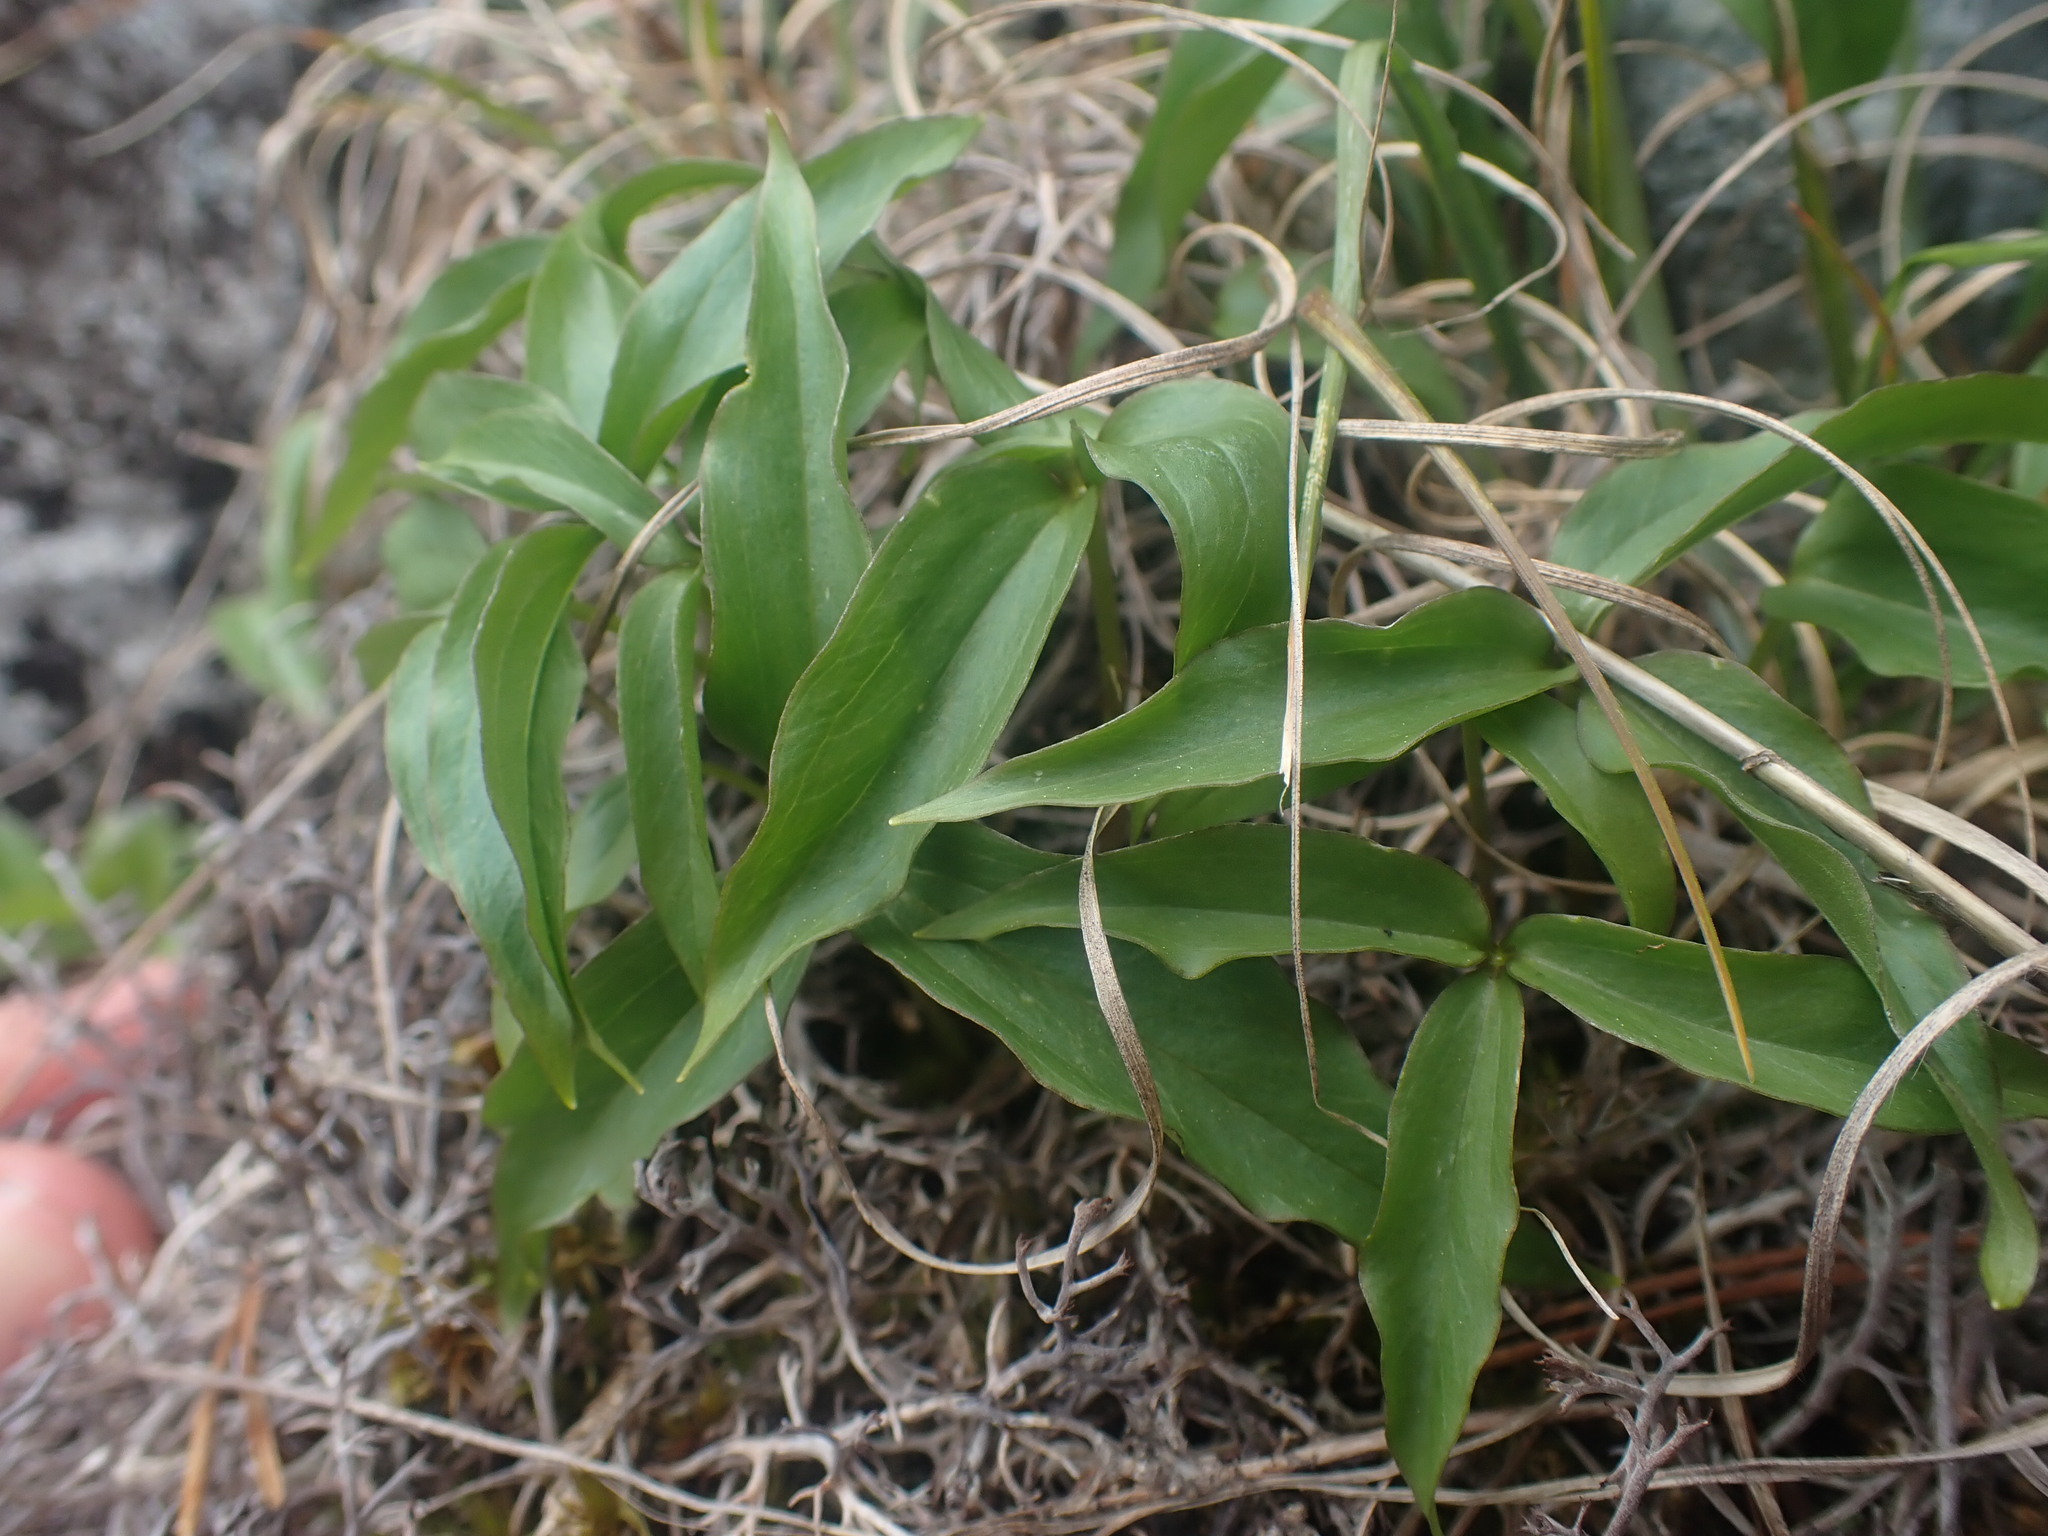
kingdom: Plantae
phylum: Tracheophyta
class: Liliopsida
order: Liliales
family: Melanthiaceae
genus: Trillium
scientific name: Trillium hibbersonii
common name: Hibberson's trillium
